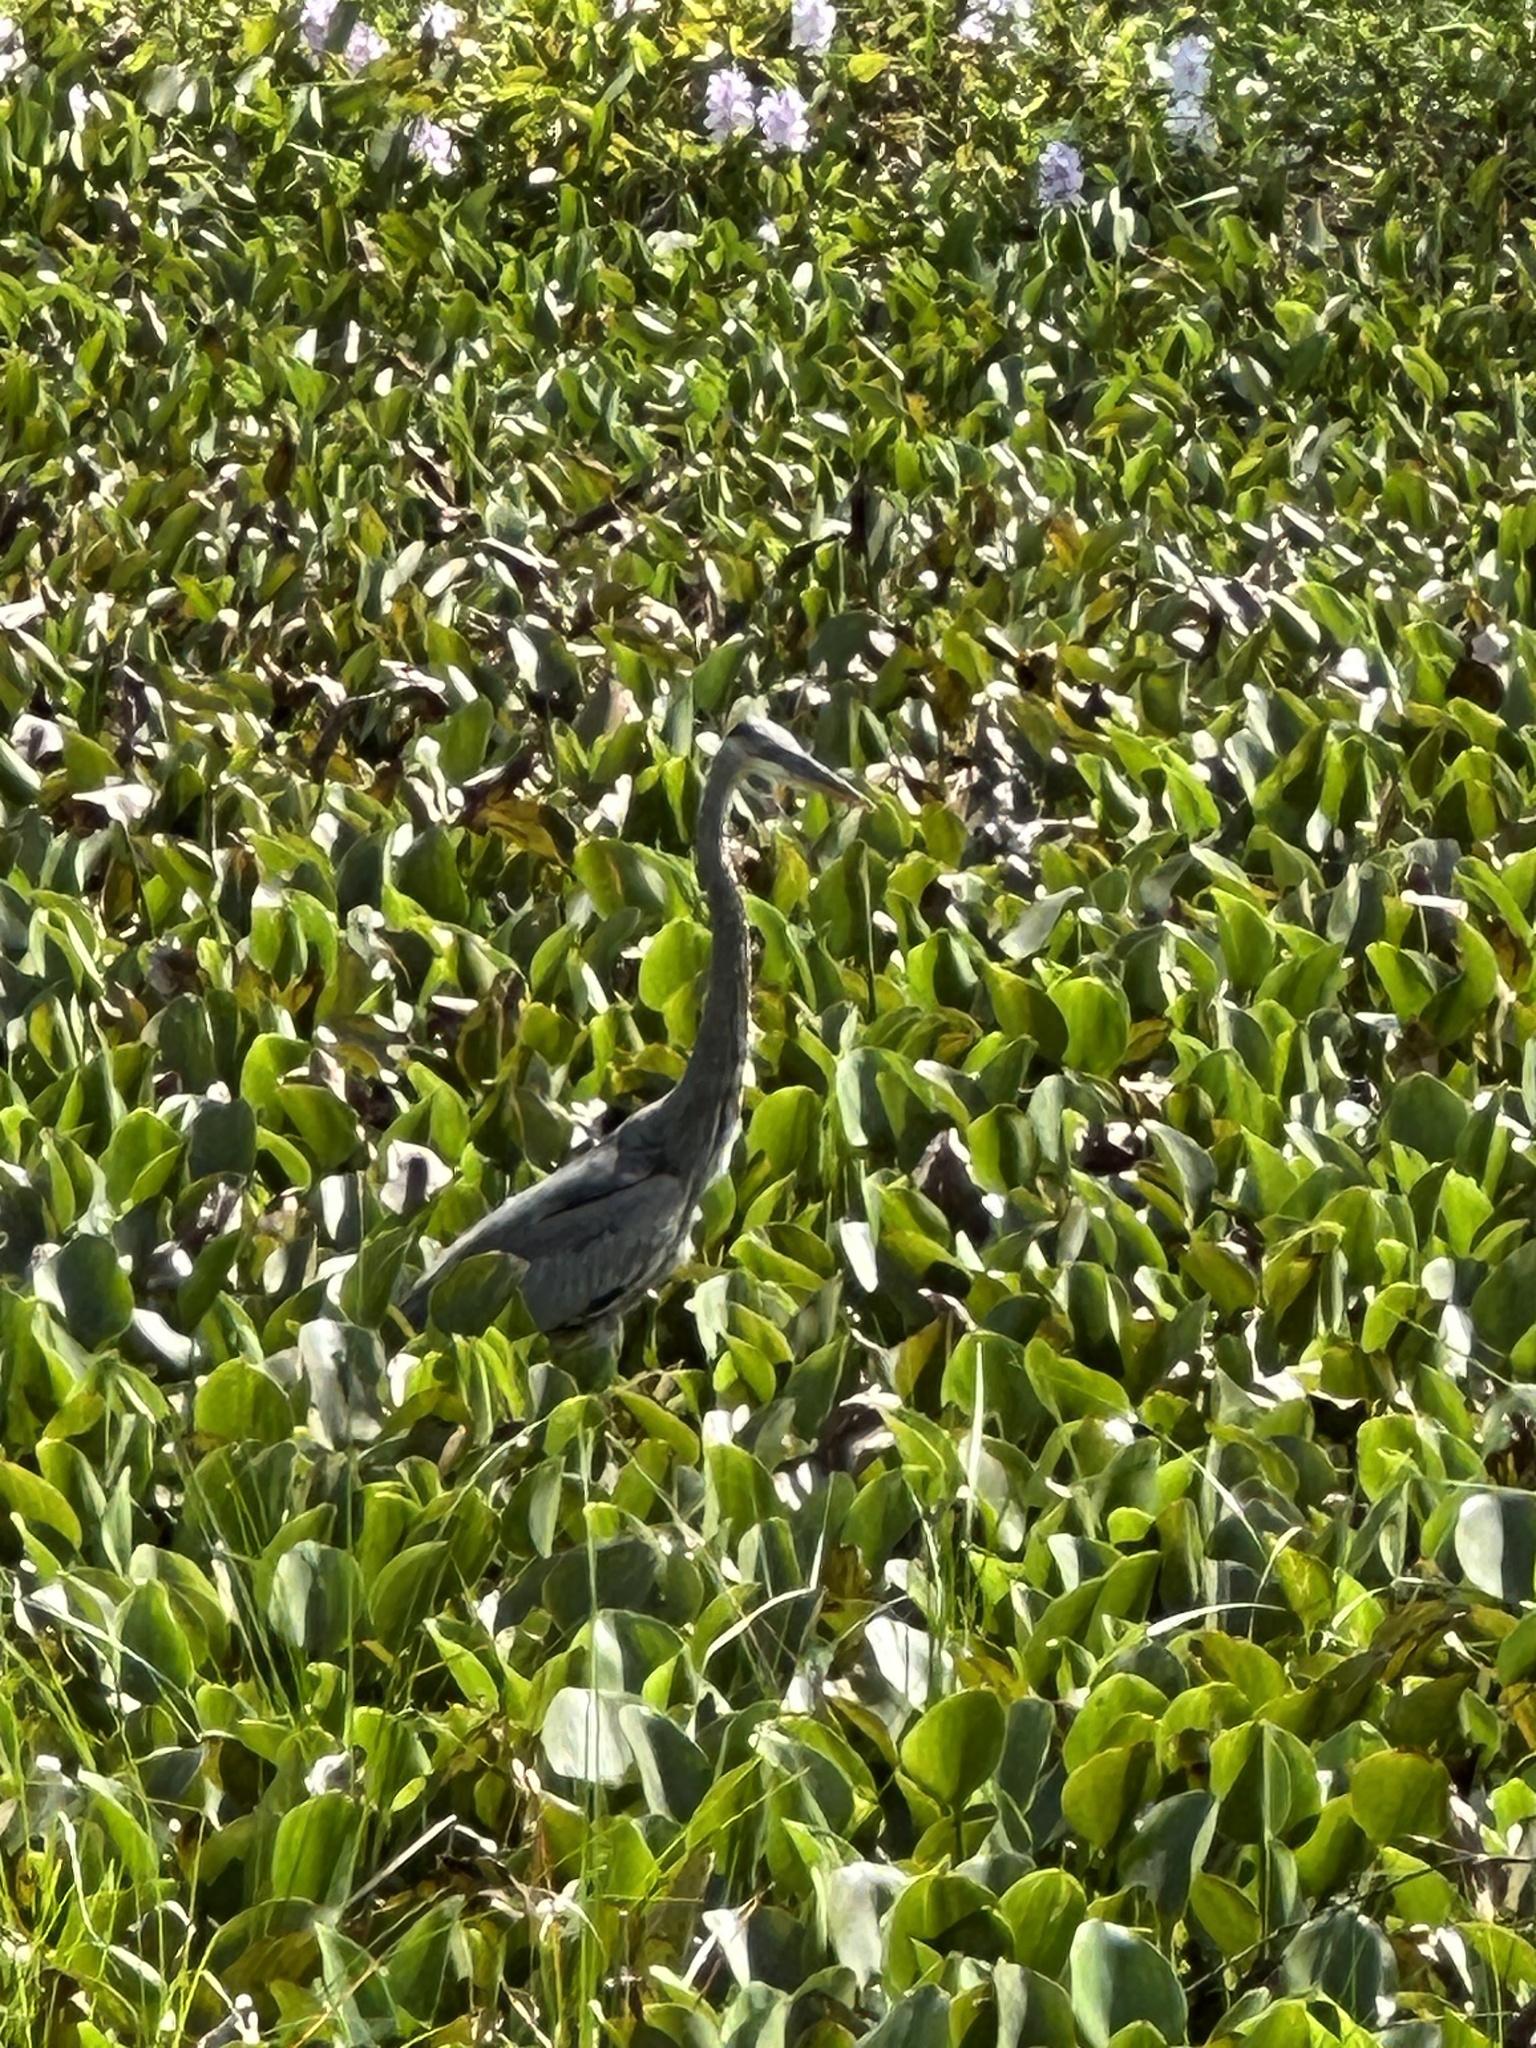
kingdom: Animalia
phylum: Chordata
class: Aves
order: Pelecaniformes
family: Ardeidae
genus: Ardea
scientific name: Ardea herodias
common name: Great blue heron
